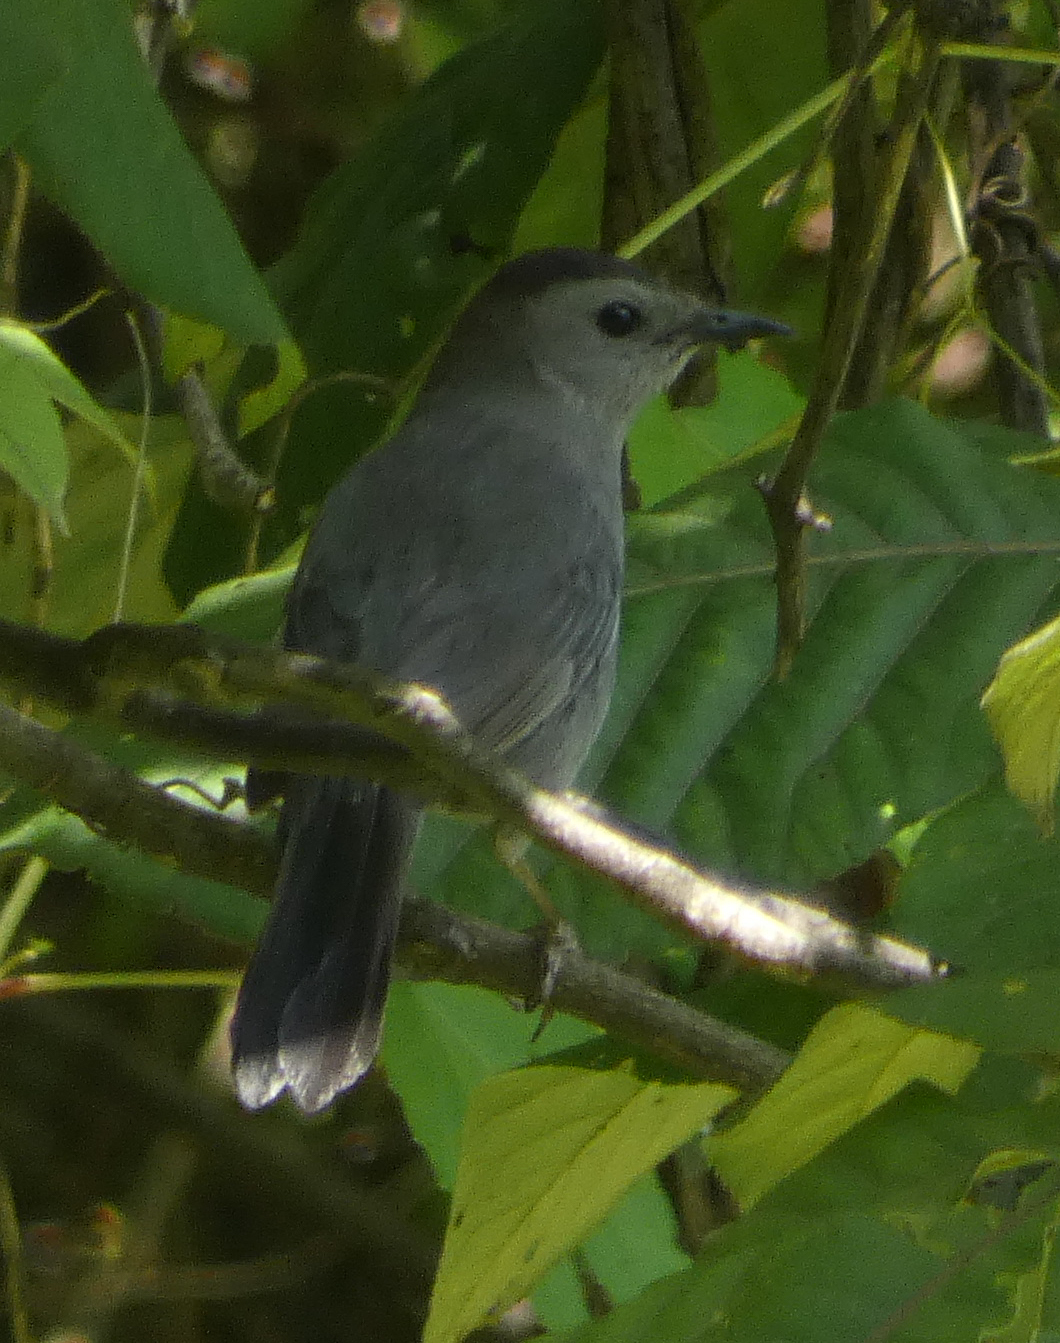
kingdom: Animalia
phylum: Chordata
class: Aves
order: Passeriformes
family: Mimidae
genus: Dumetella
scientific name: Dumetella carolinensis
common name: Gray catbird
